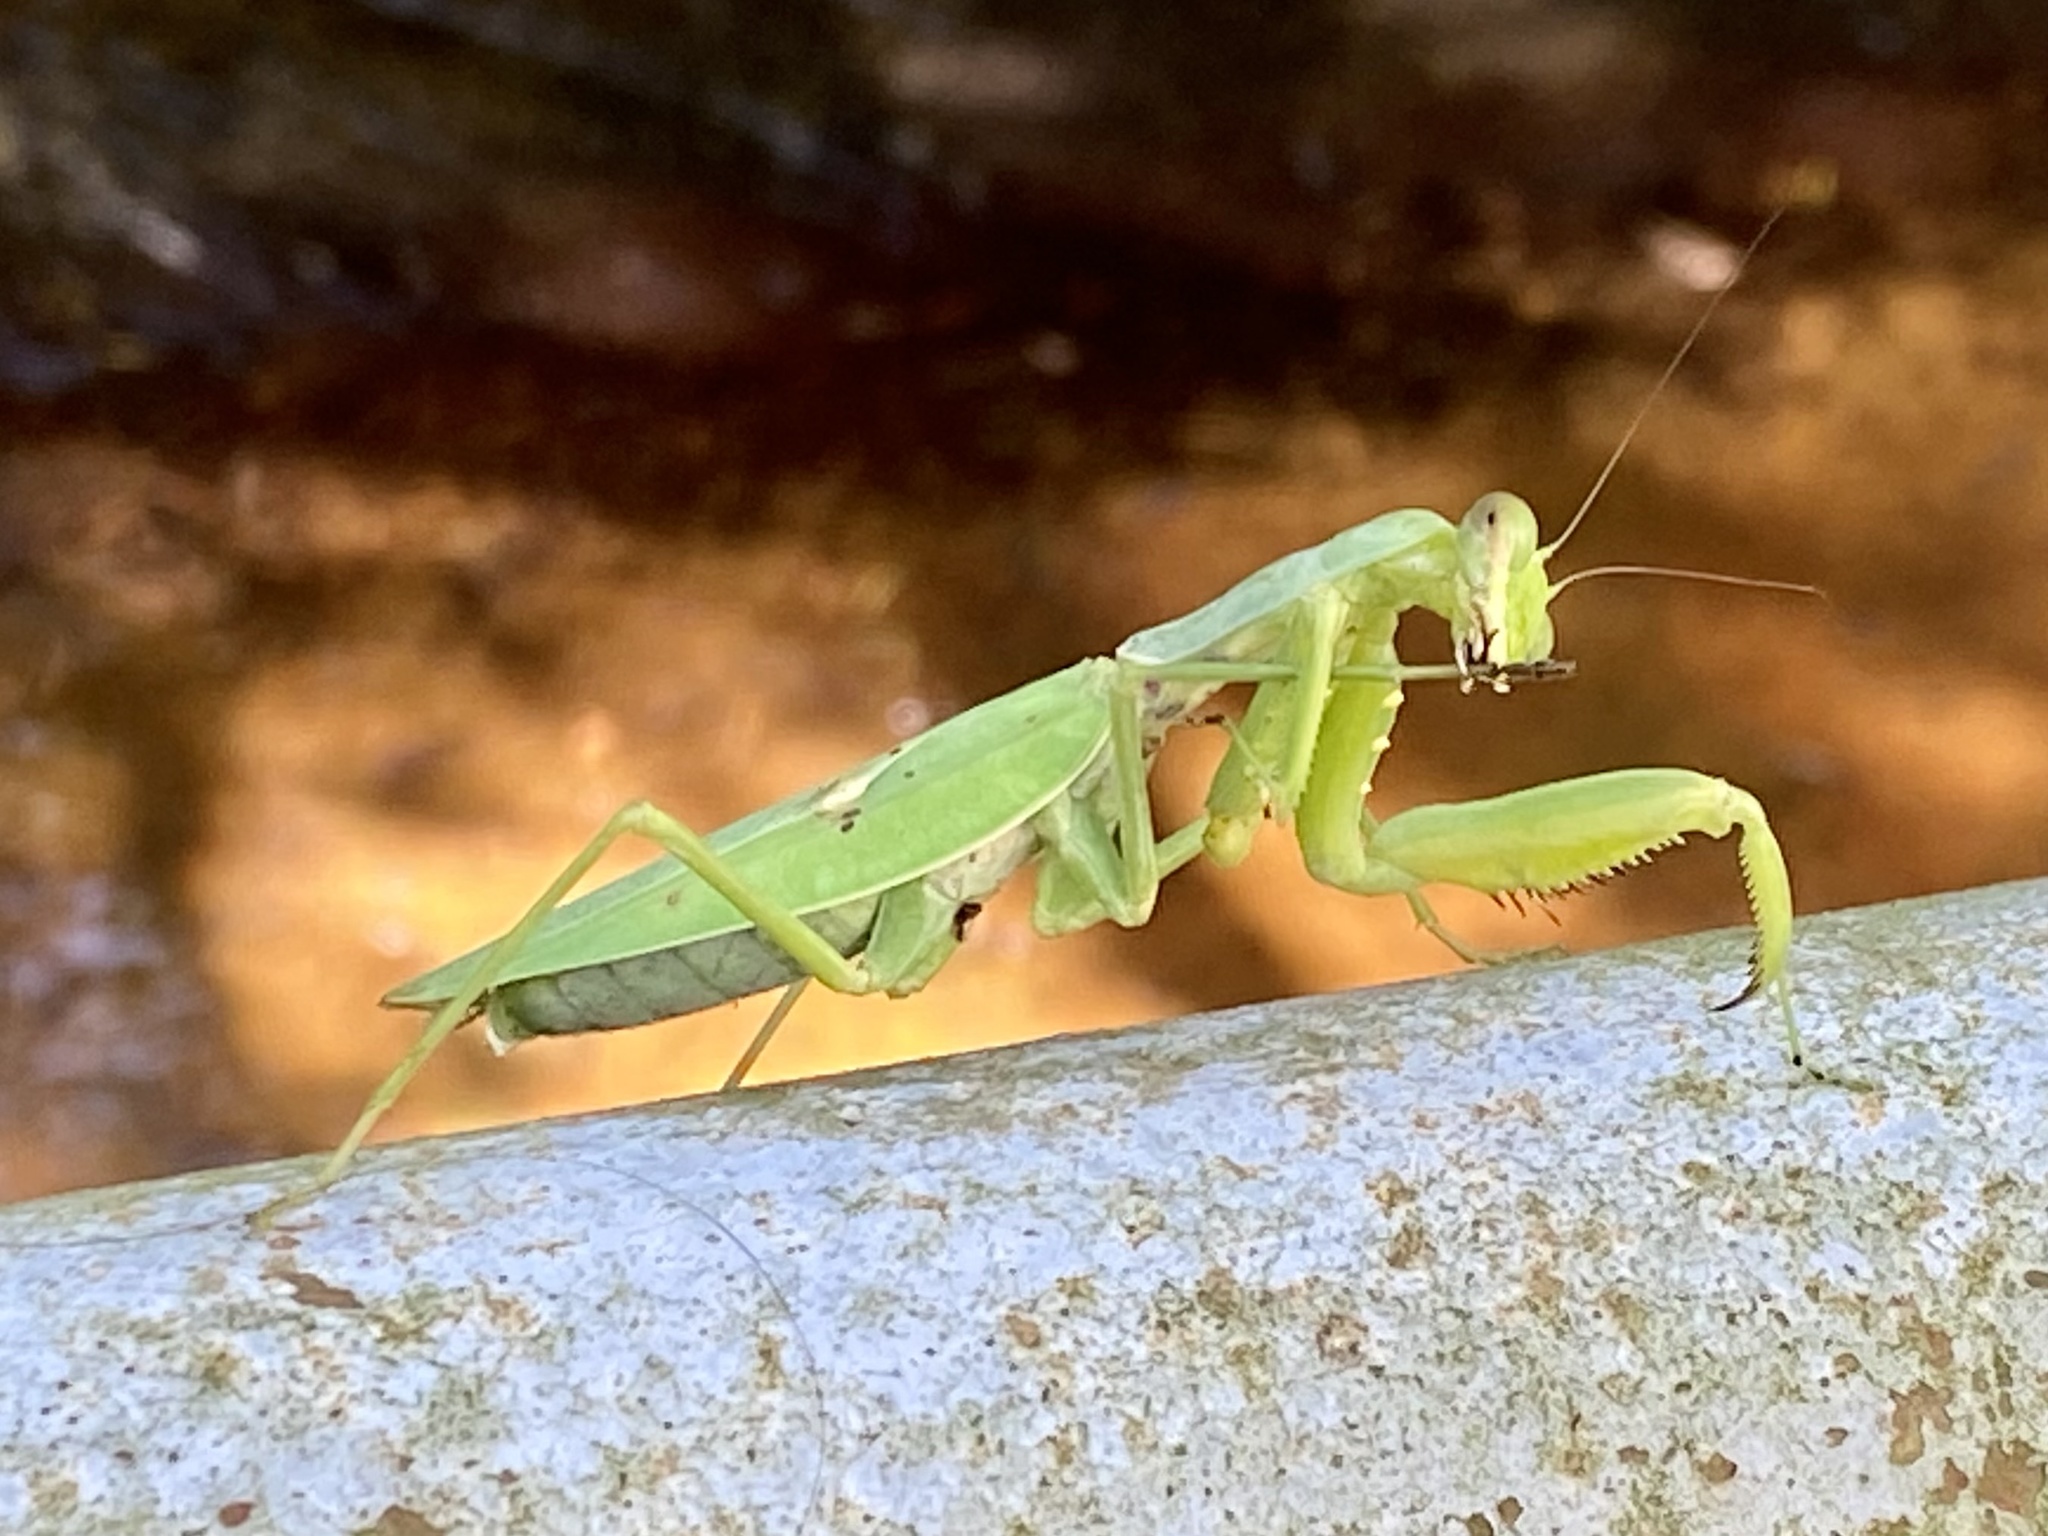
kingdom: Animalia
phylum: Arthropoda
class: Insecta
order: Mantodea
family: Mantidae
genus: Hierodula
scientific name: Hierodula patellifera
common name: Asian mantis
